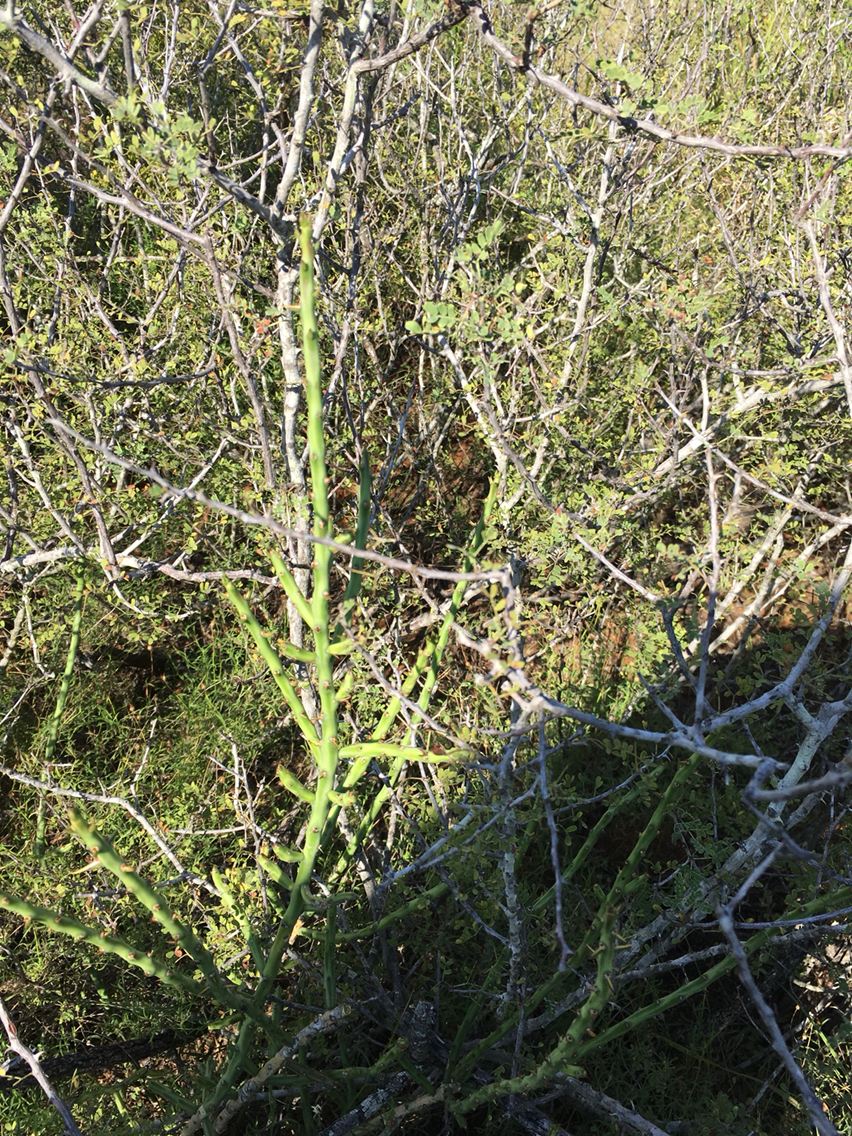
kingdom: Plantae
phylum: Tracheophyta
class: Magnoliopsida
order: Caryophyllales
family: Cactaceae
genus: Cylindropuntia
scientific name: Cylindropuntia leptocaulis
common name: Christmas cactus
